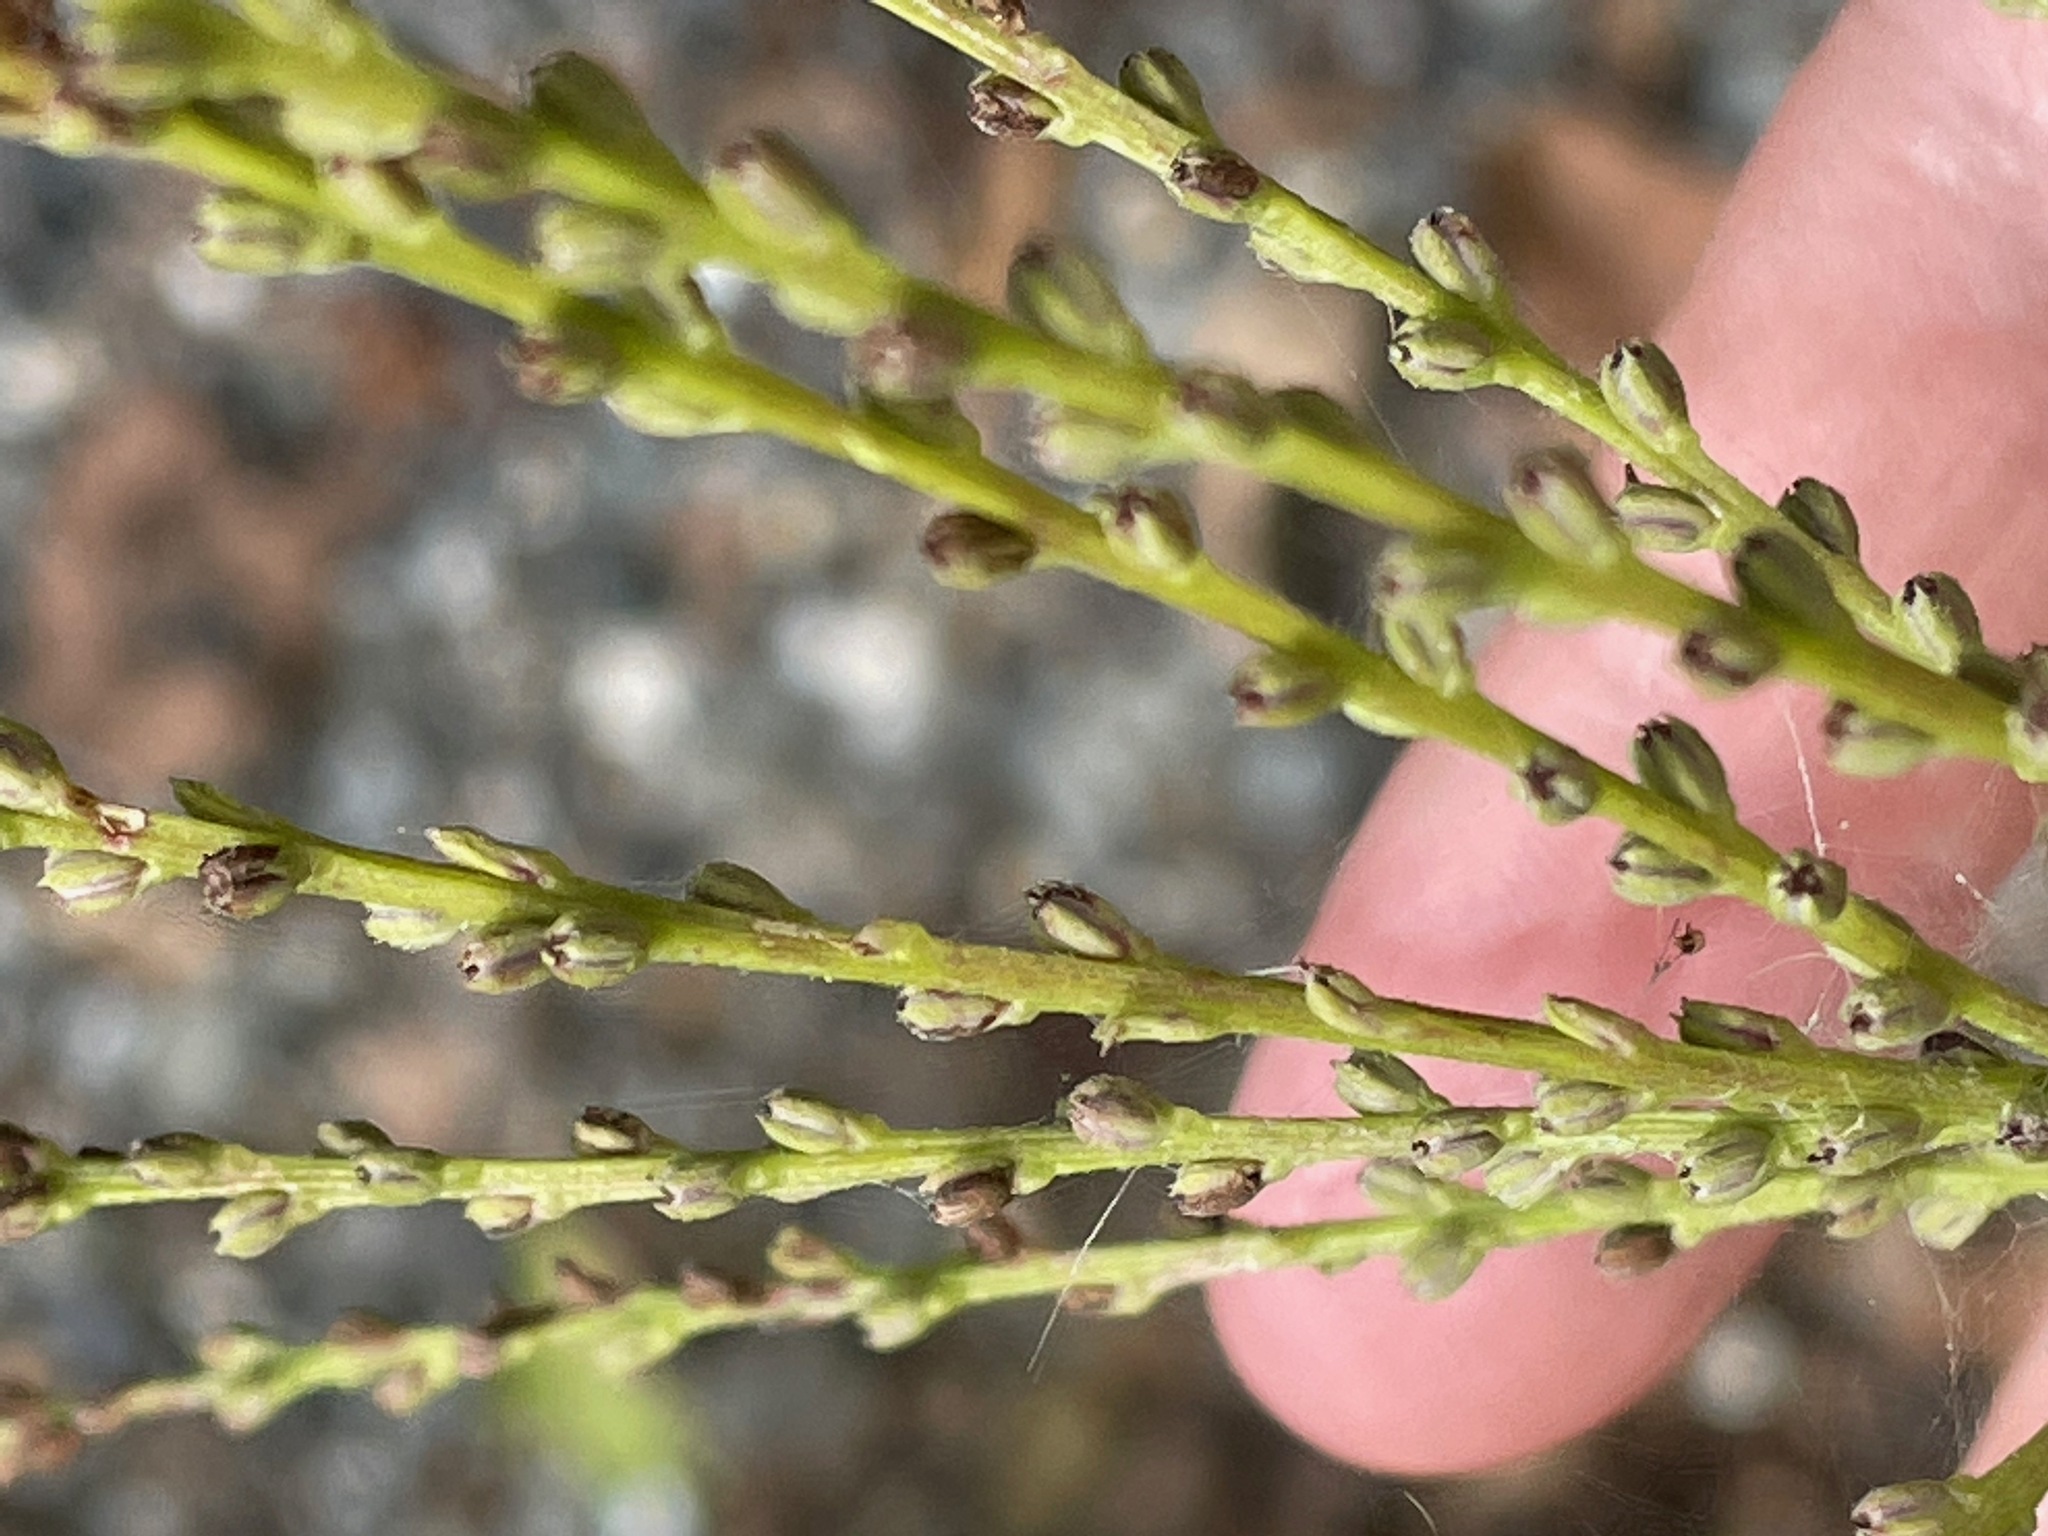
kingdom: Plantae
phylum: Tracheophyta
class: Magnoliopsida
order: Lamiales
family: Verbenaceae
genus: Verbena
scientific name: Verbena urticifolia
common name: Nettle-leaved vervain
